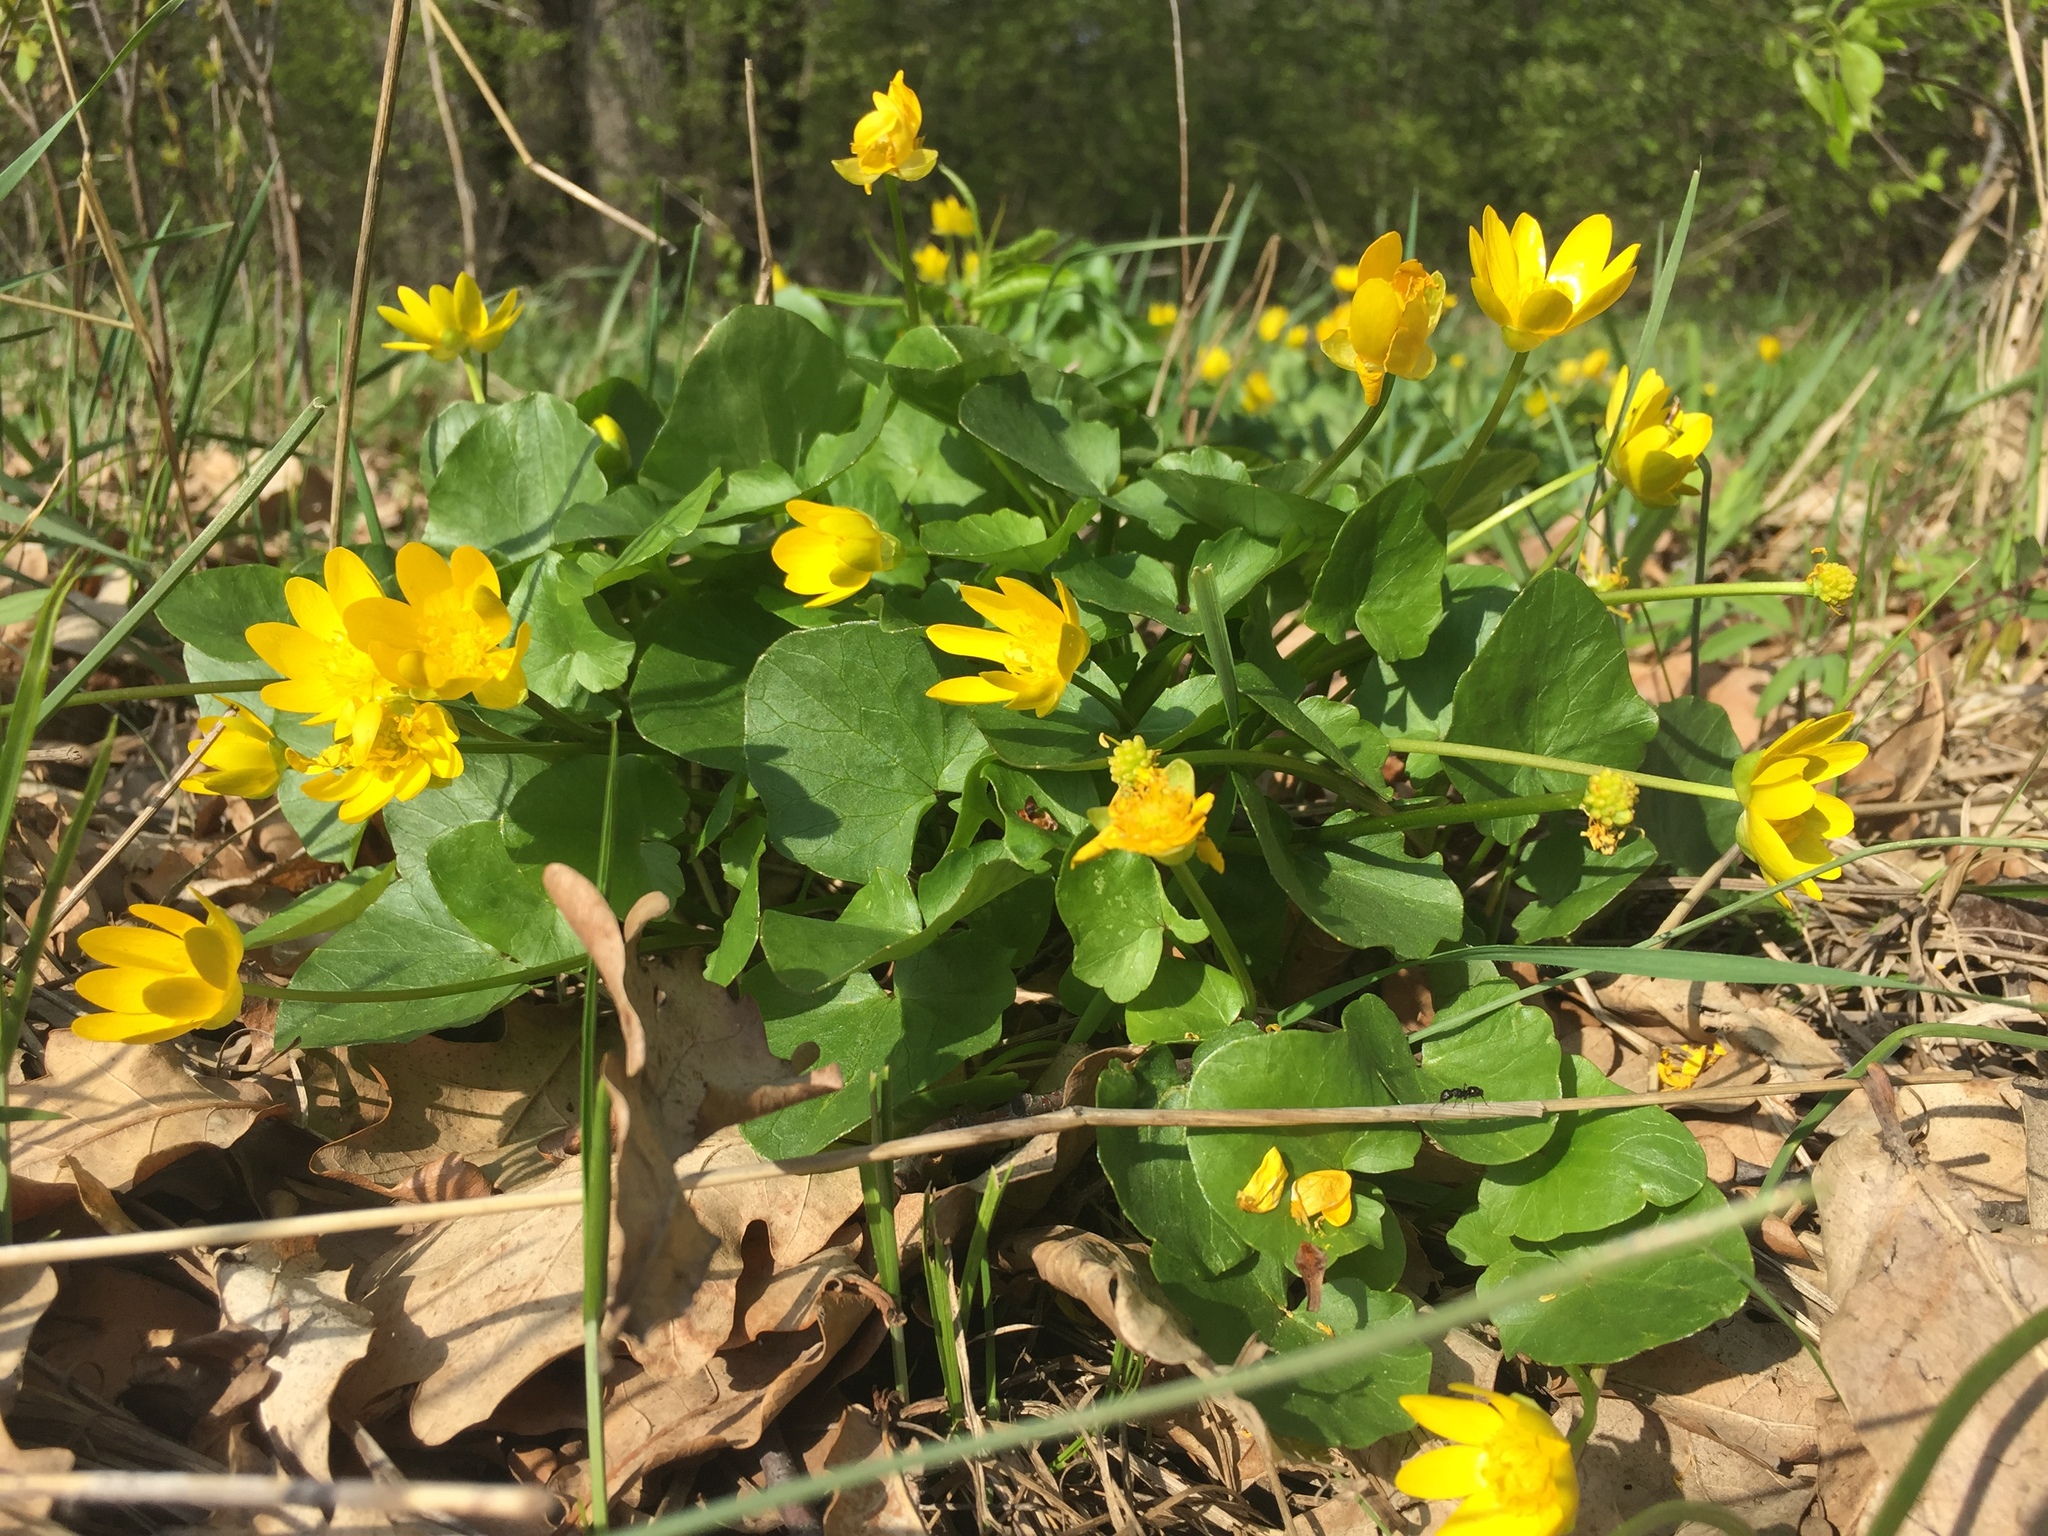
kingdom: Plantae
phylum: Tracheophyta
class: Magnoliopsida
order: Ranunculales
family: Ranunculaceae
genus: Ficaria
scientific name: Ficaria verna
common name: Lesser celandine
